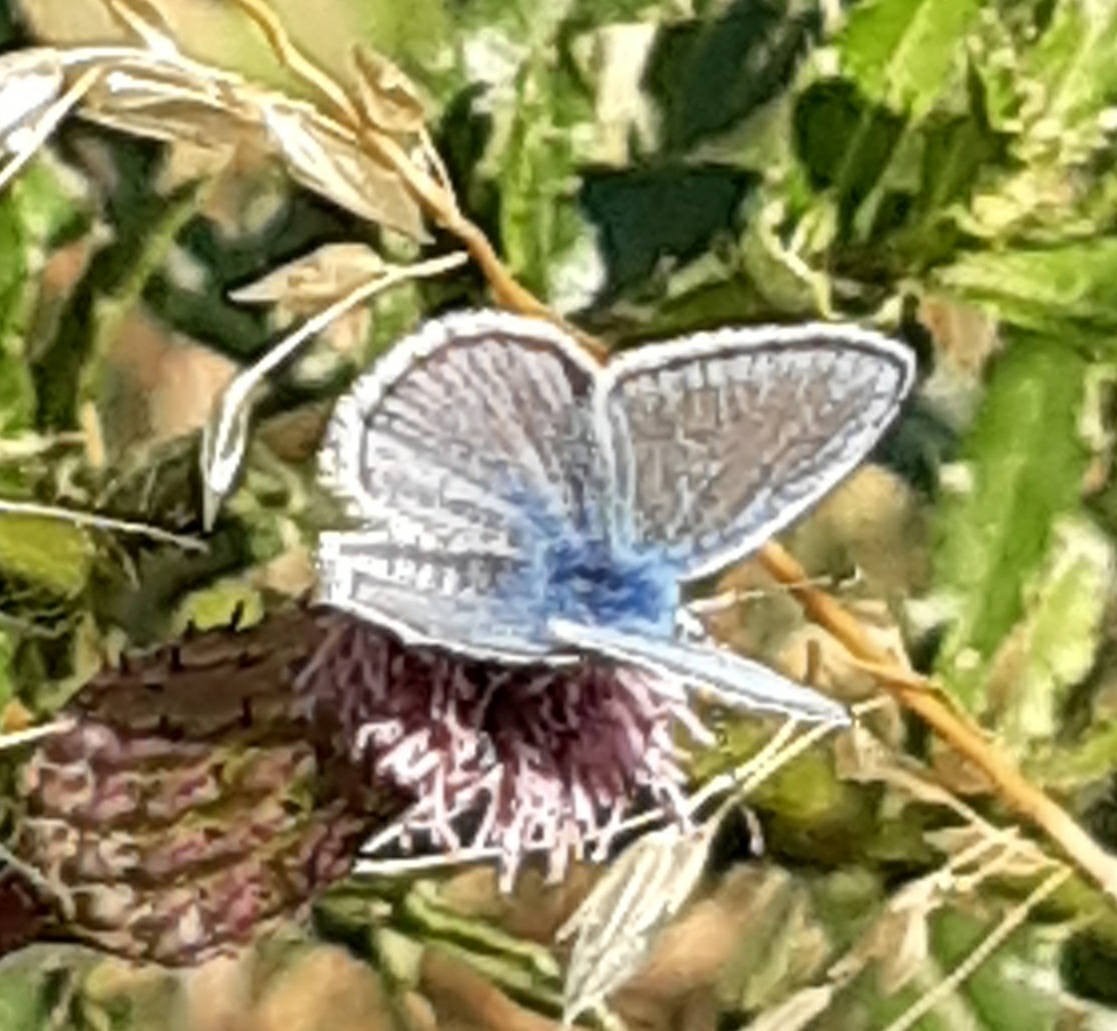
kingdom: Animalia
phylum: Arthropoda
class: Insecta
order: Lepidoptera
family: Lycaenidae
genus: Polyommatus
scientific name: Polyommatus icarus
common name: Common blue
